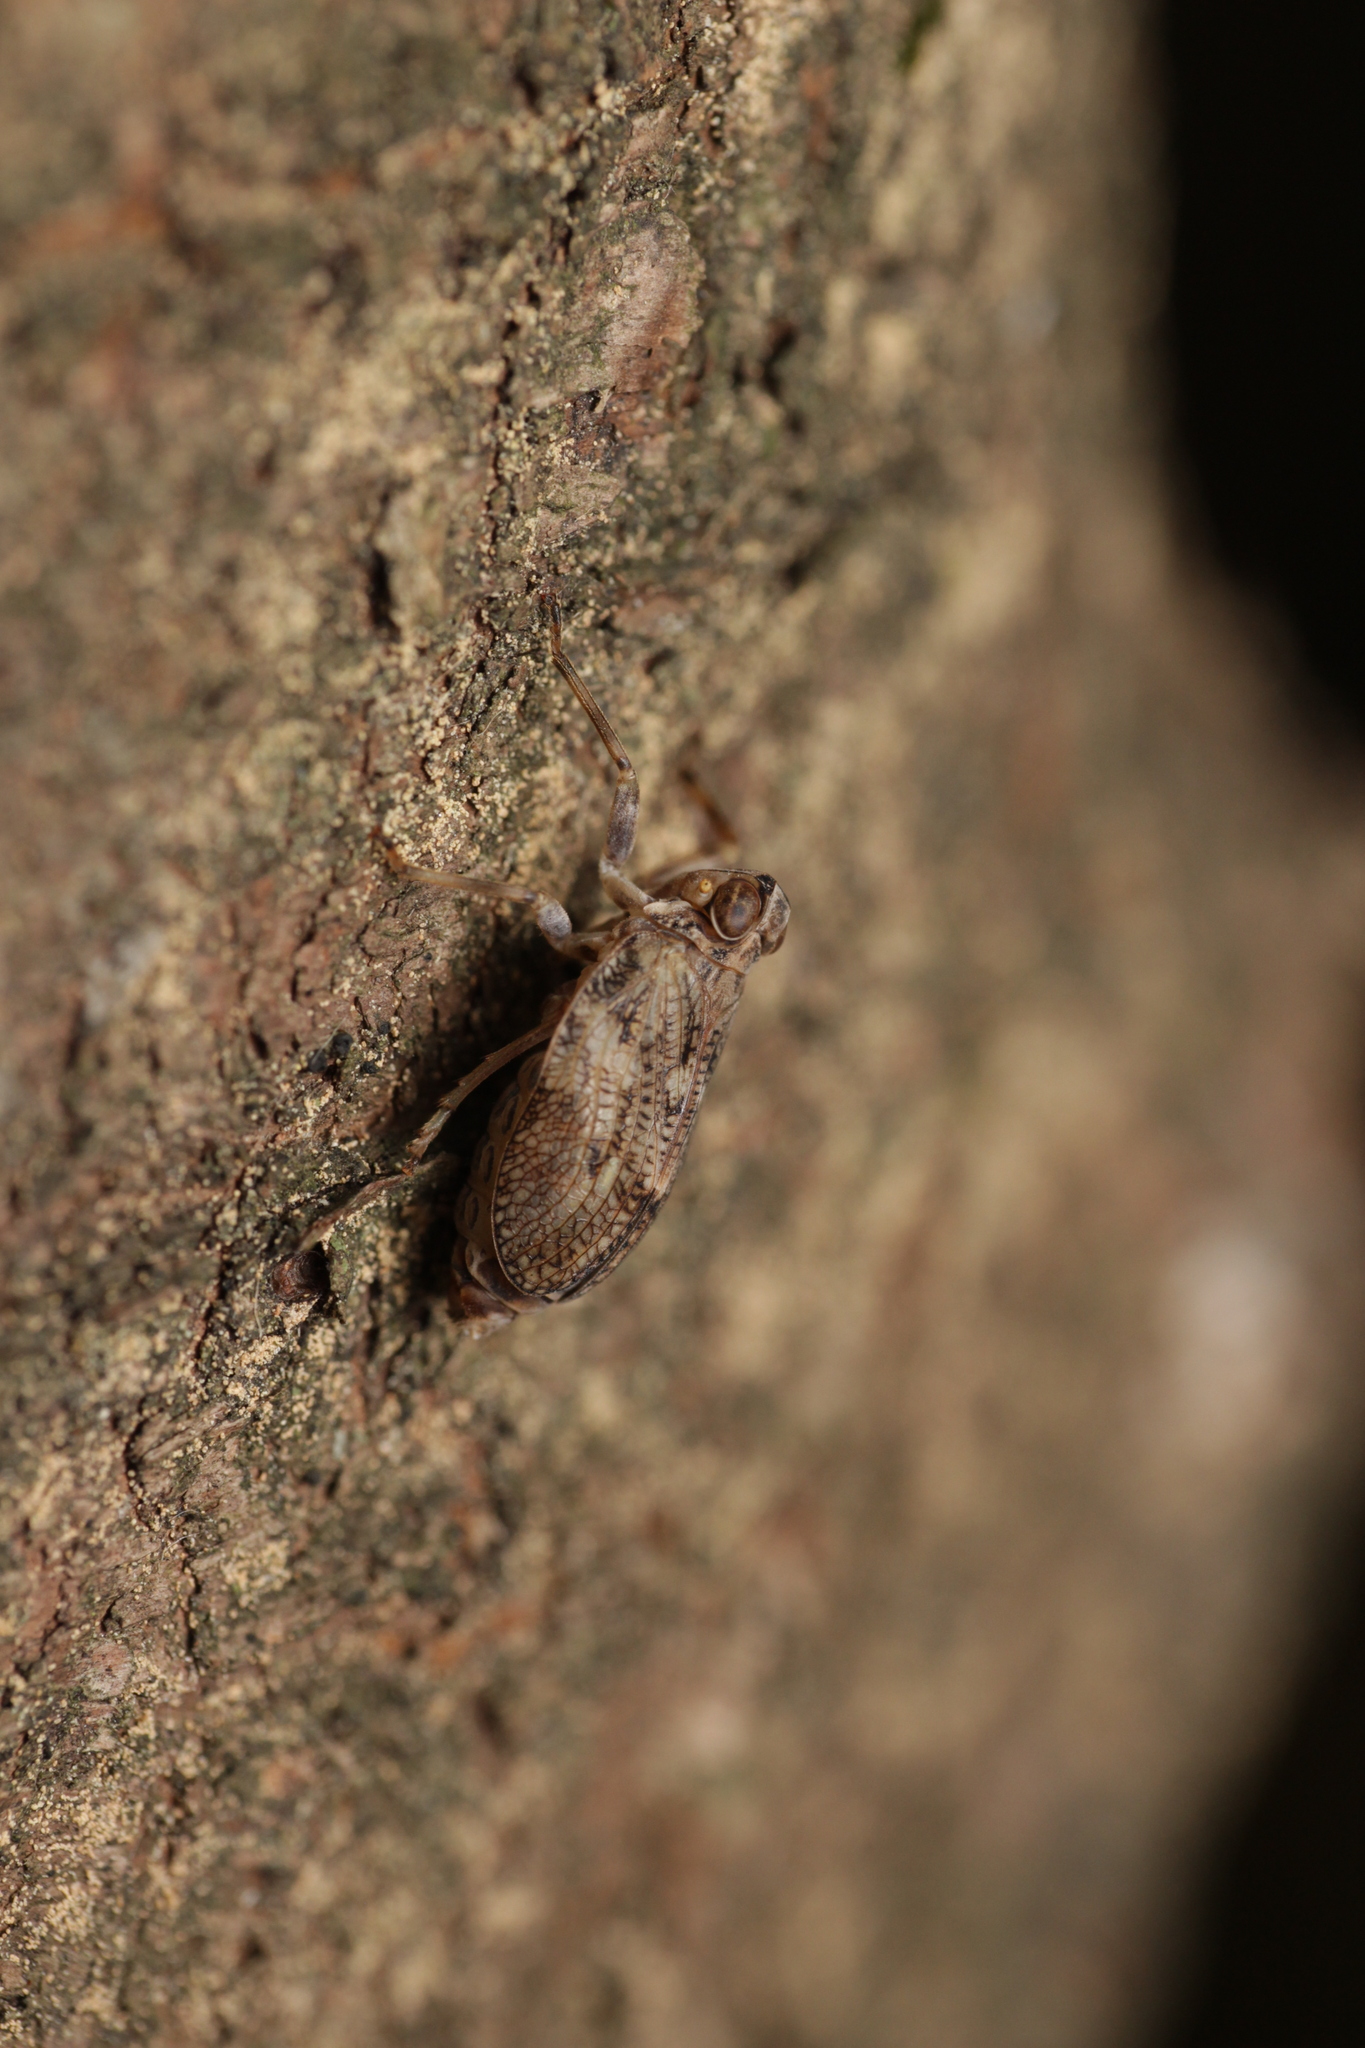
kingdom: Animalia
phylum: Arthropoda
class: Insecta
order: Hemiptera
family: Issidae
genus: Issus
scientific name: Issus coleoptratus
